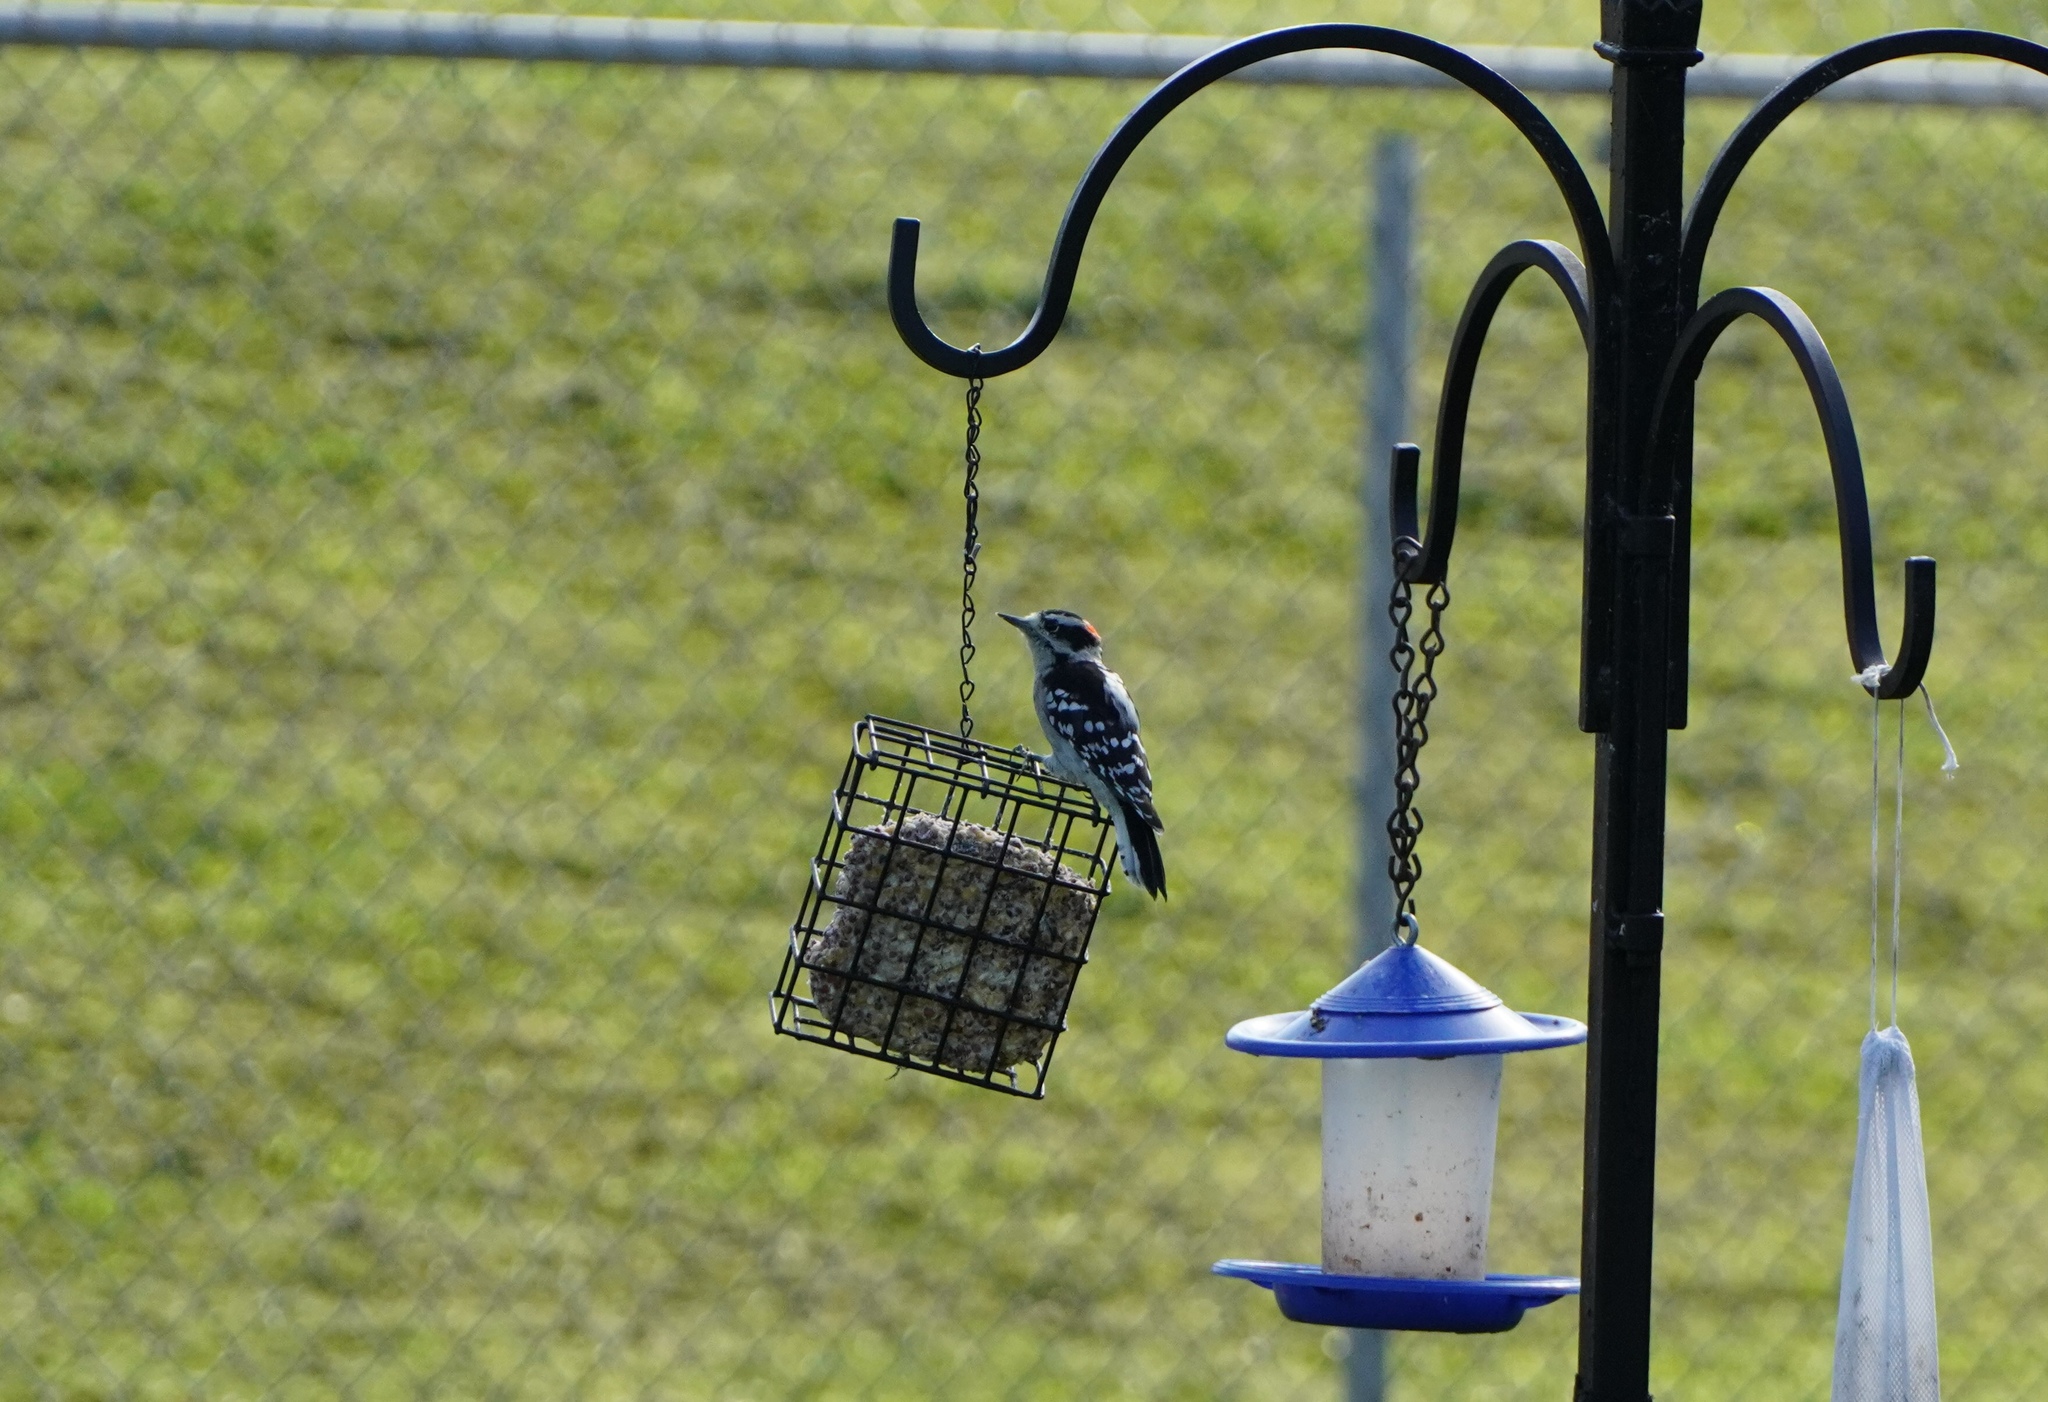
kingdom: Animalia
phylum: Chordata
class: Aves
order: Piciformes
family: Picidae
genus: Dryobates
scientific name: Dryobates pubescens
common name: Downy woodpecker
